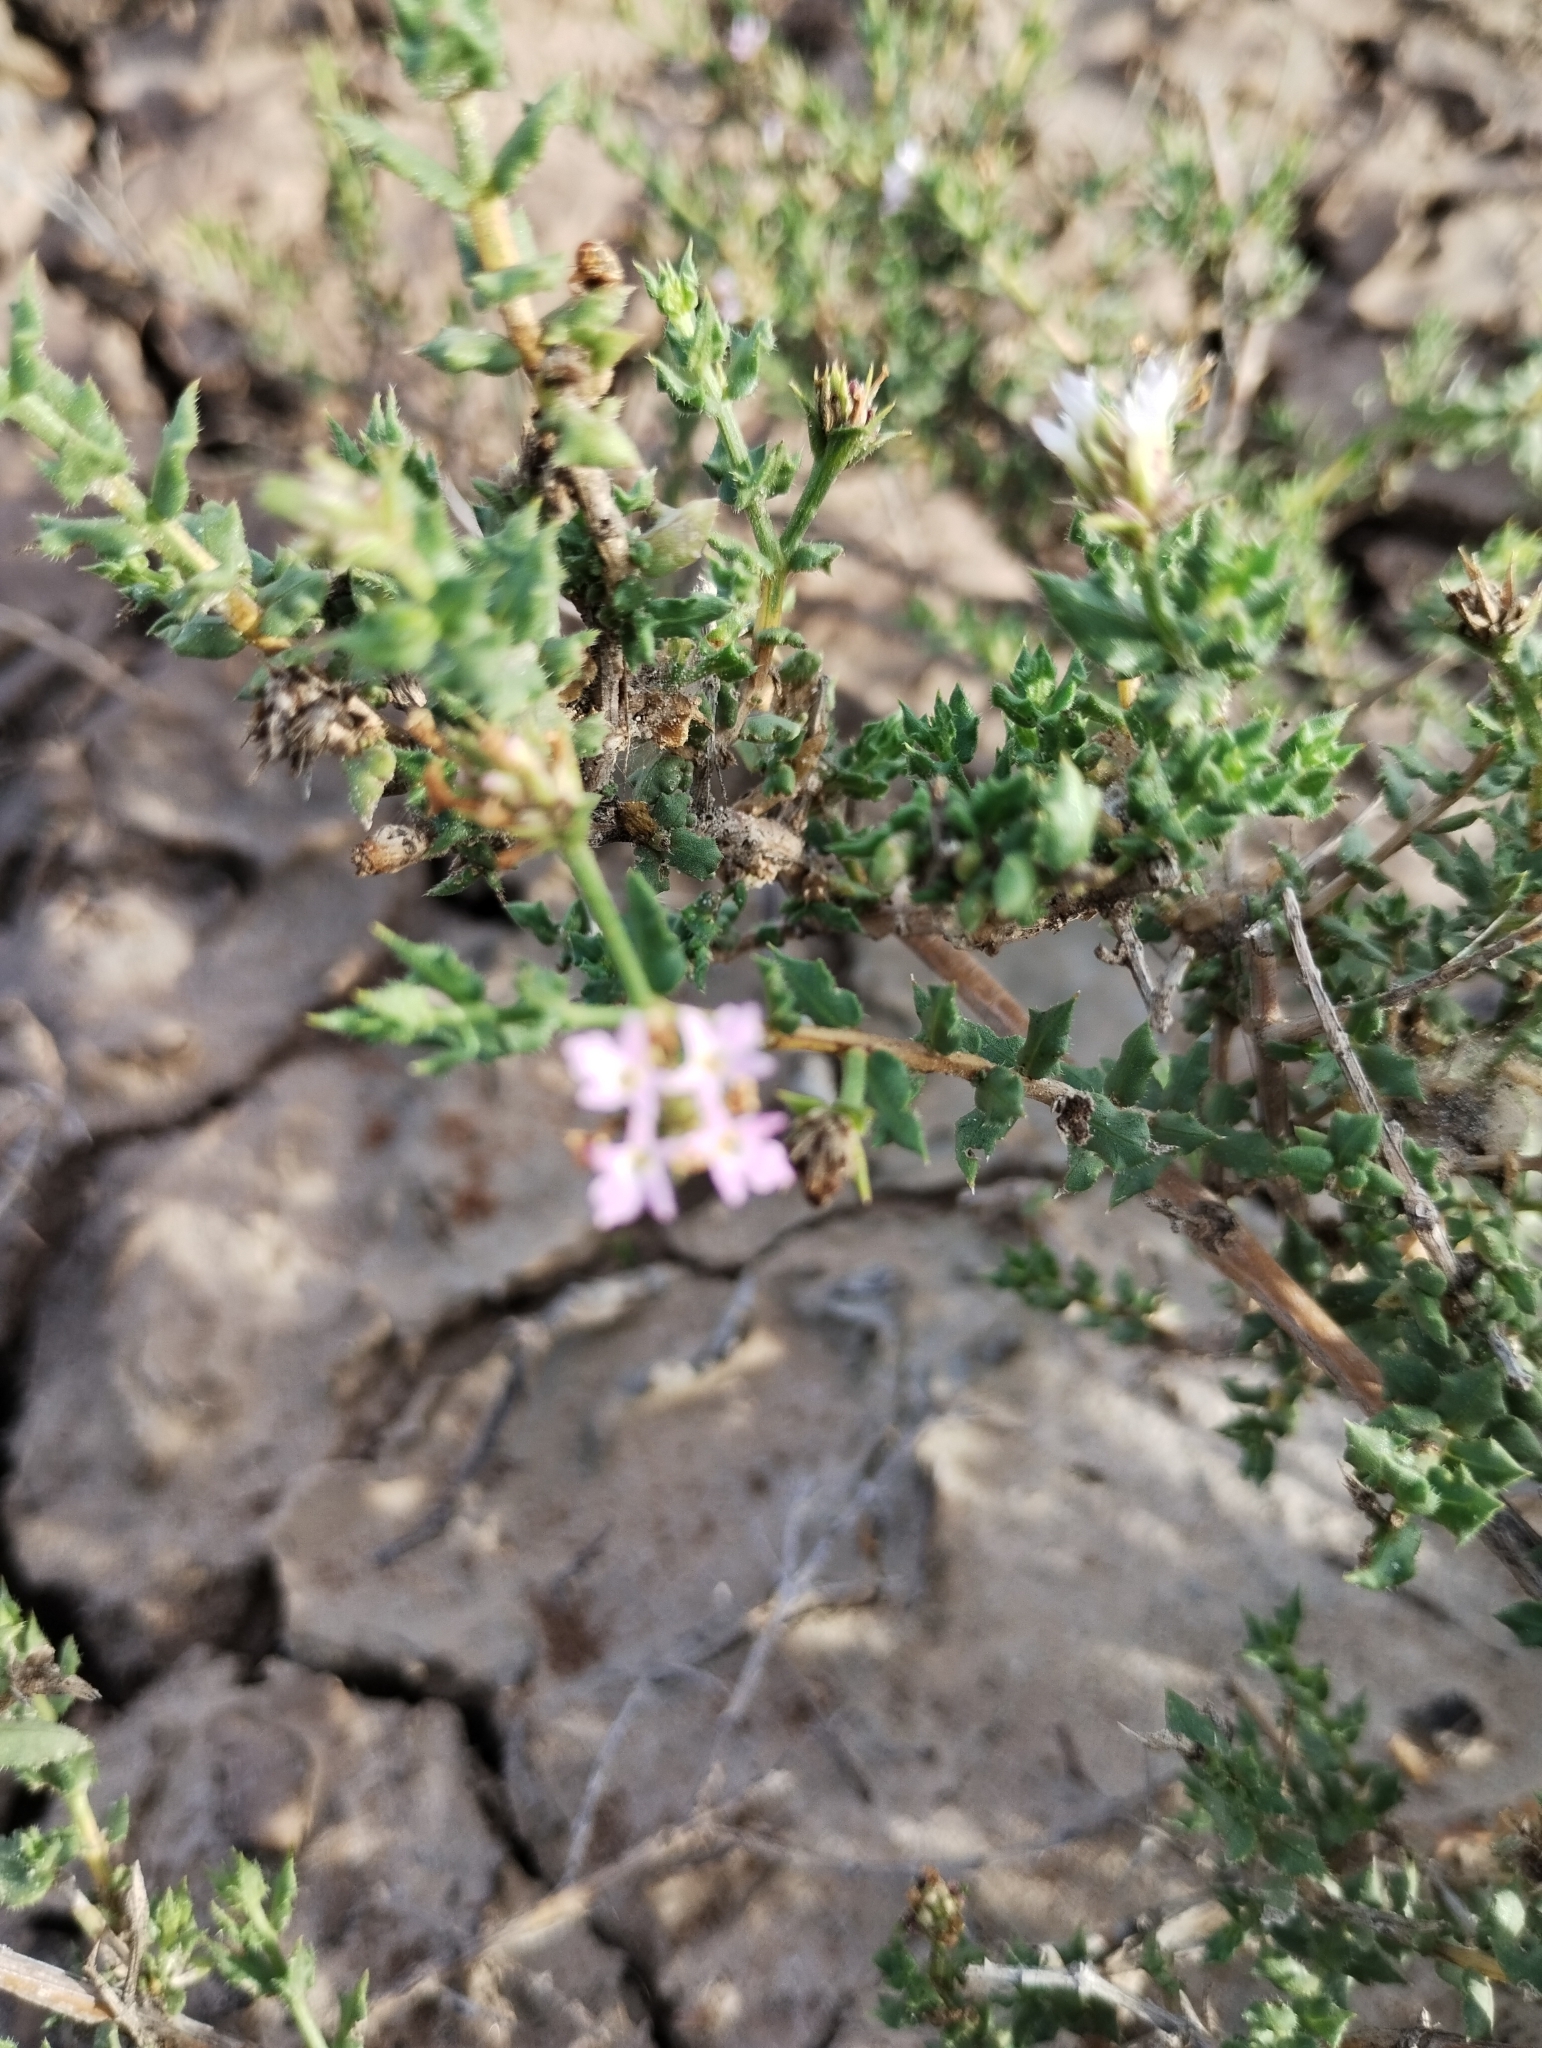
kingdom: Plantae
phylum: Tracheophyta
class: Magnoliopsida
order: Lamiales
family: Verbenaceae
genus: Lippia
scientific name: Lippia salsa
